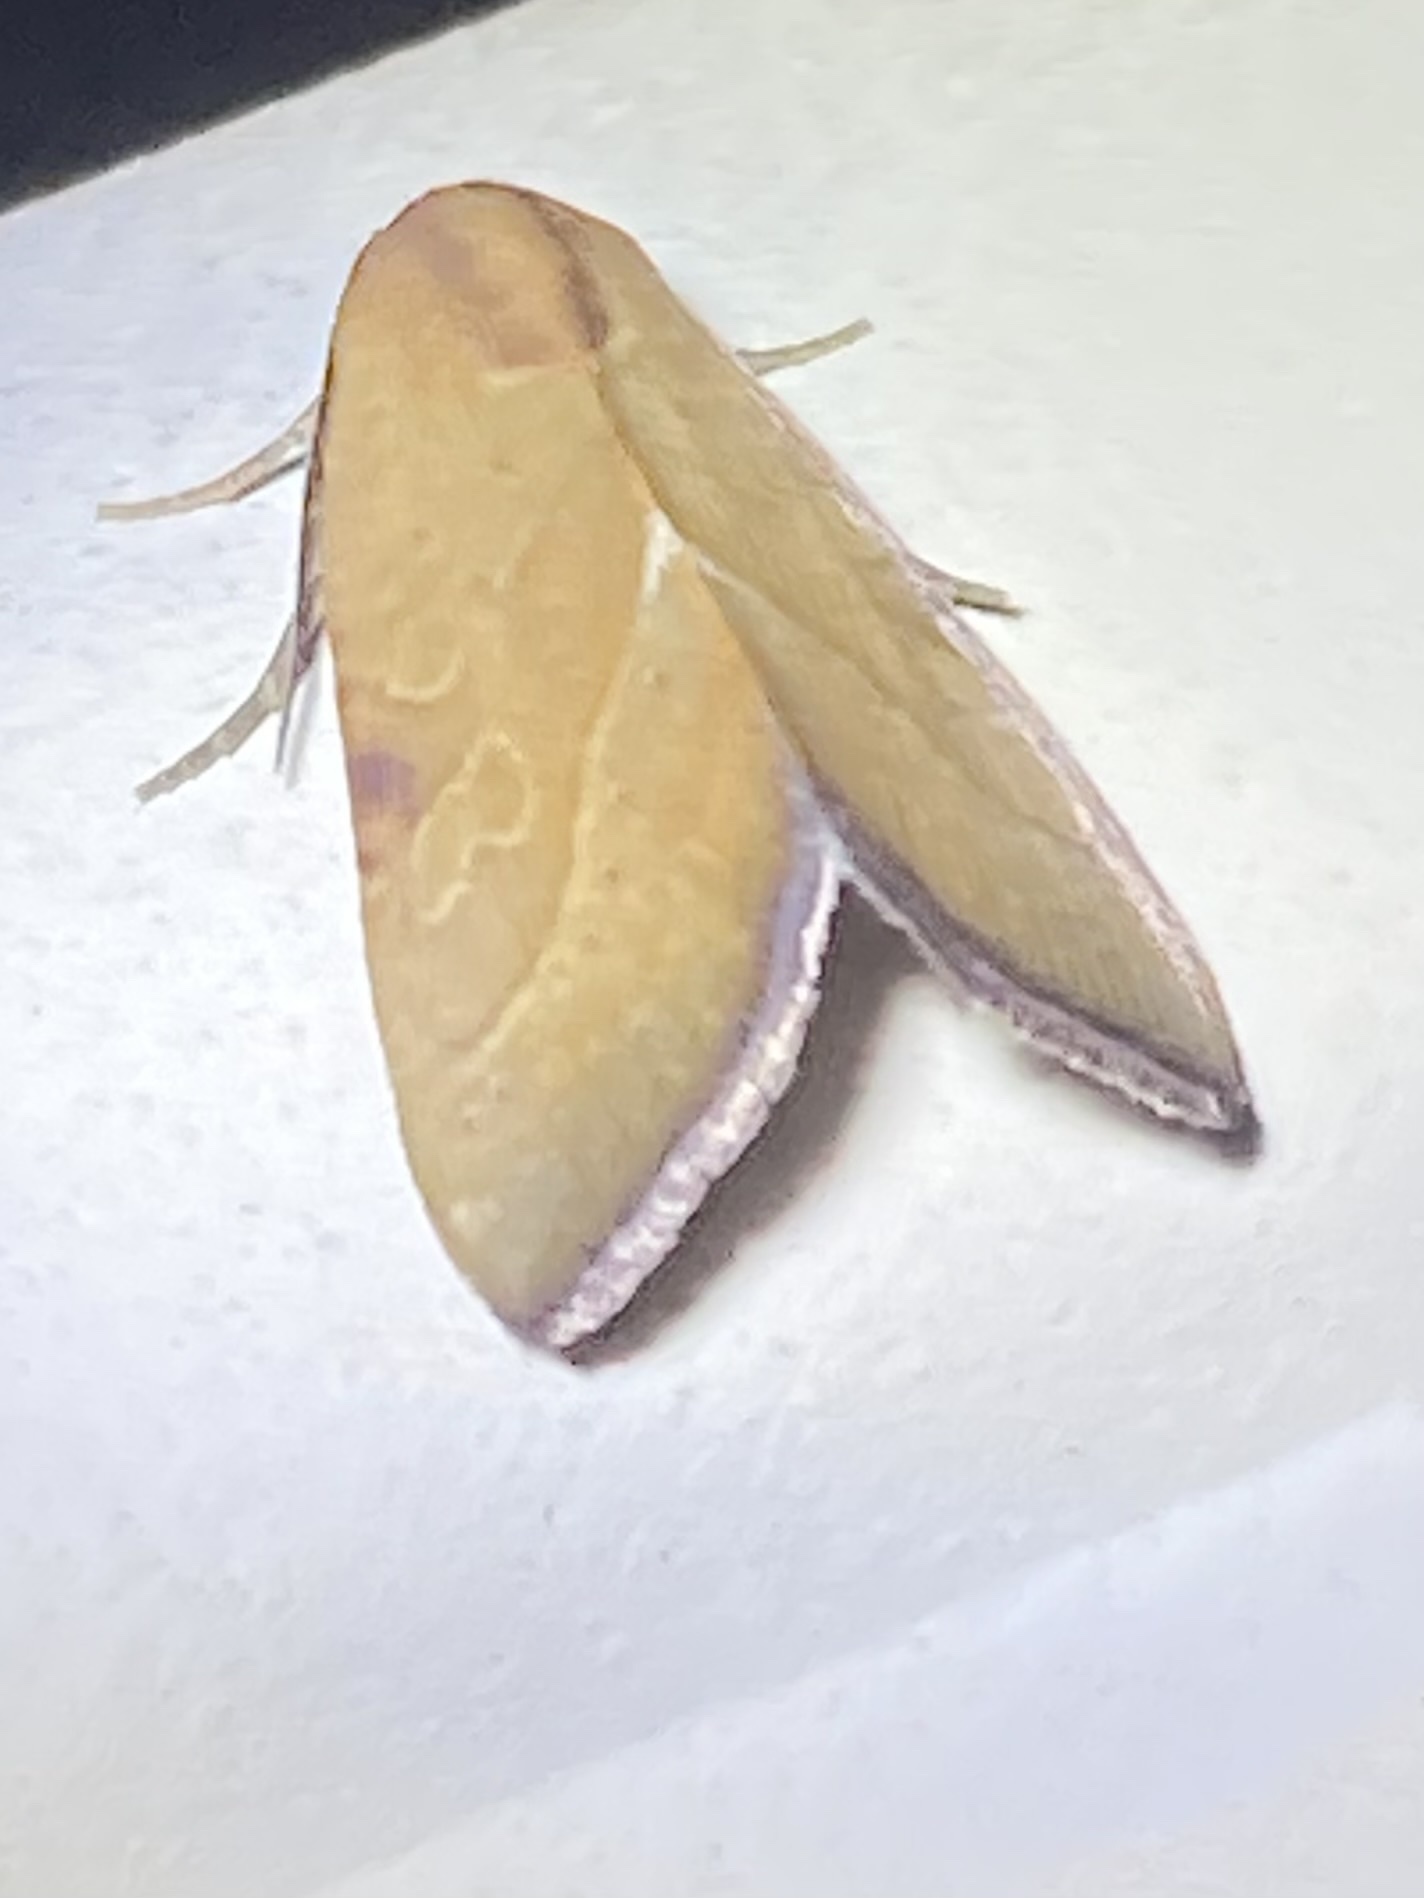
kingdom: Animalia
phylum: Arthropoda
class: Insecta
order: Lepidoptera
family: Noctuidae
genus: Galgula
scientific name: Galgula partita
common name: Wedgeling
